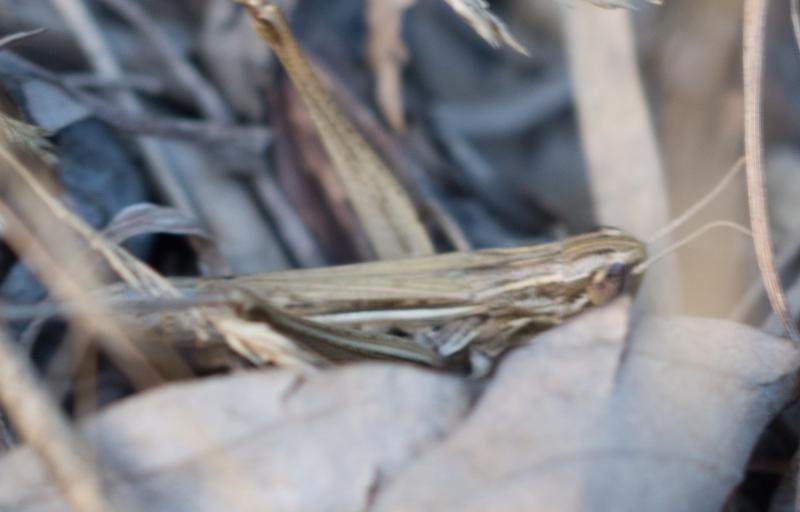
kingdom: Animalia
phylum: Arthropoda
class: Insecta
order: Orthoptera
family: Acrididae
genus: Euchorthippus
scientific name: Euchorthippus declivus
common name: Common straw grasshopper
